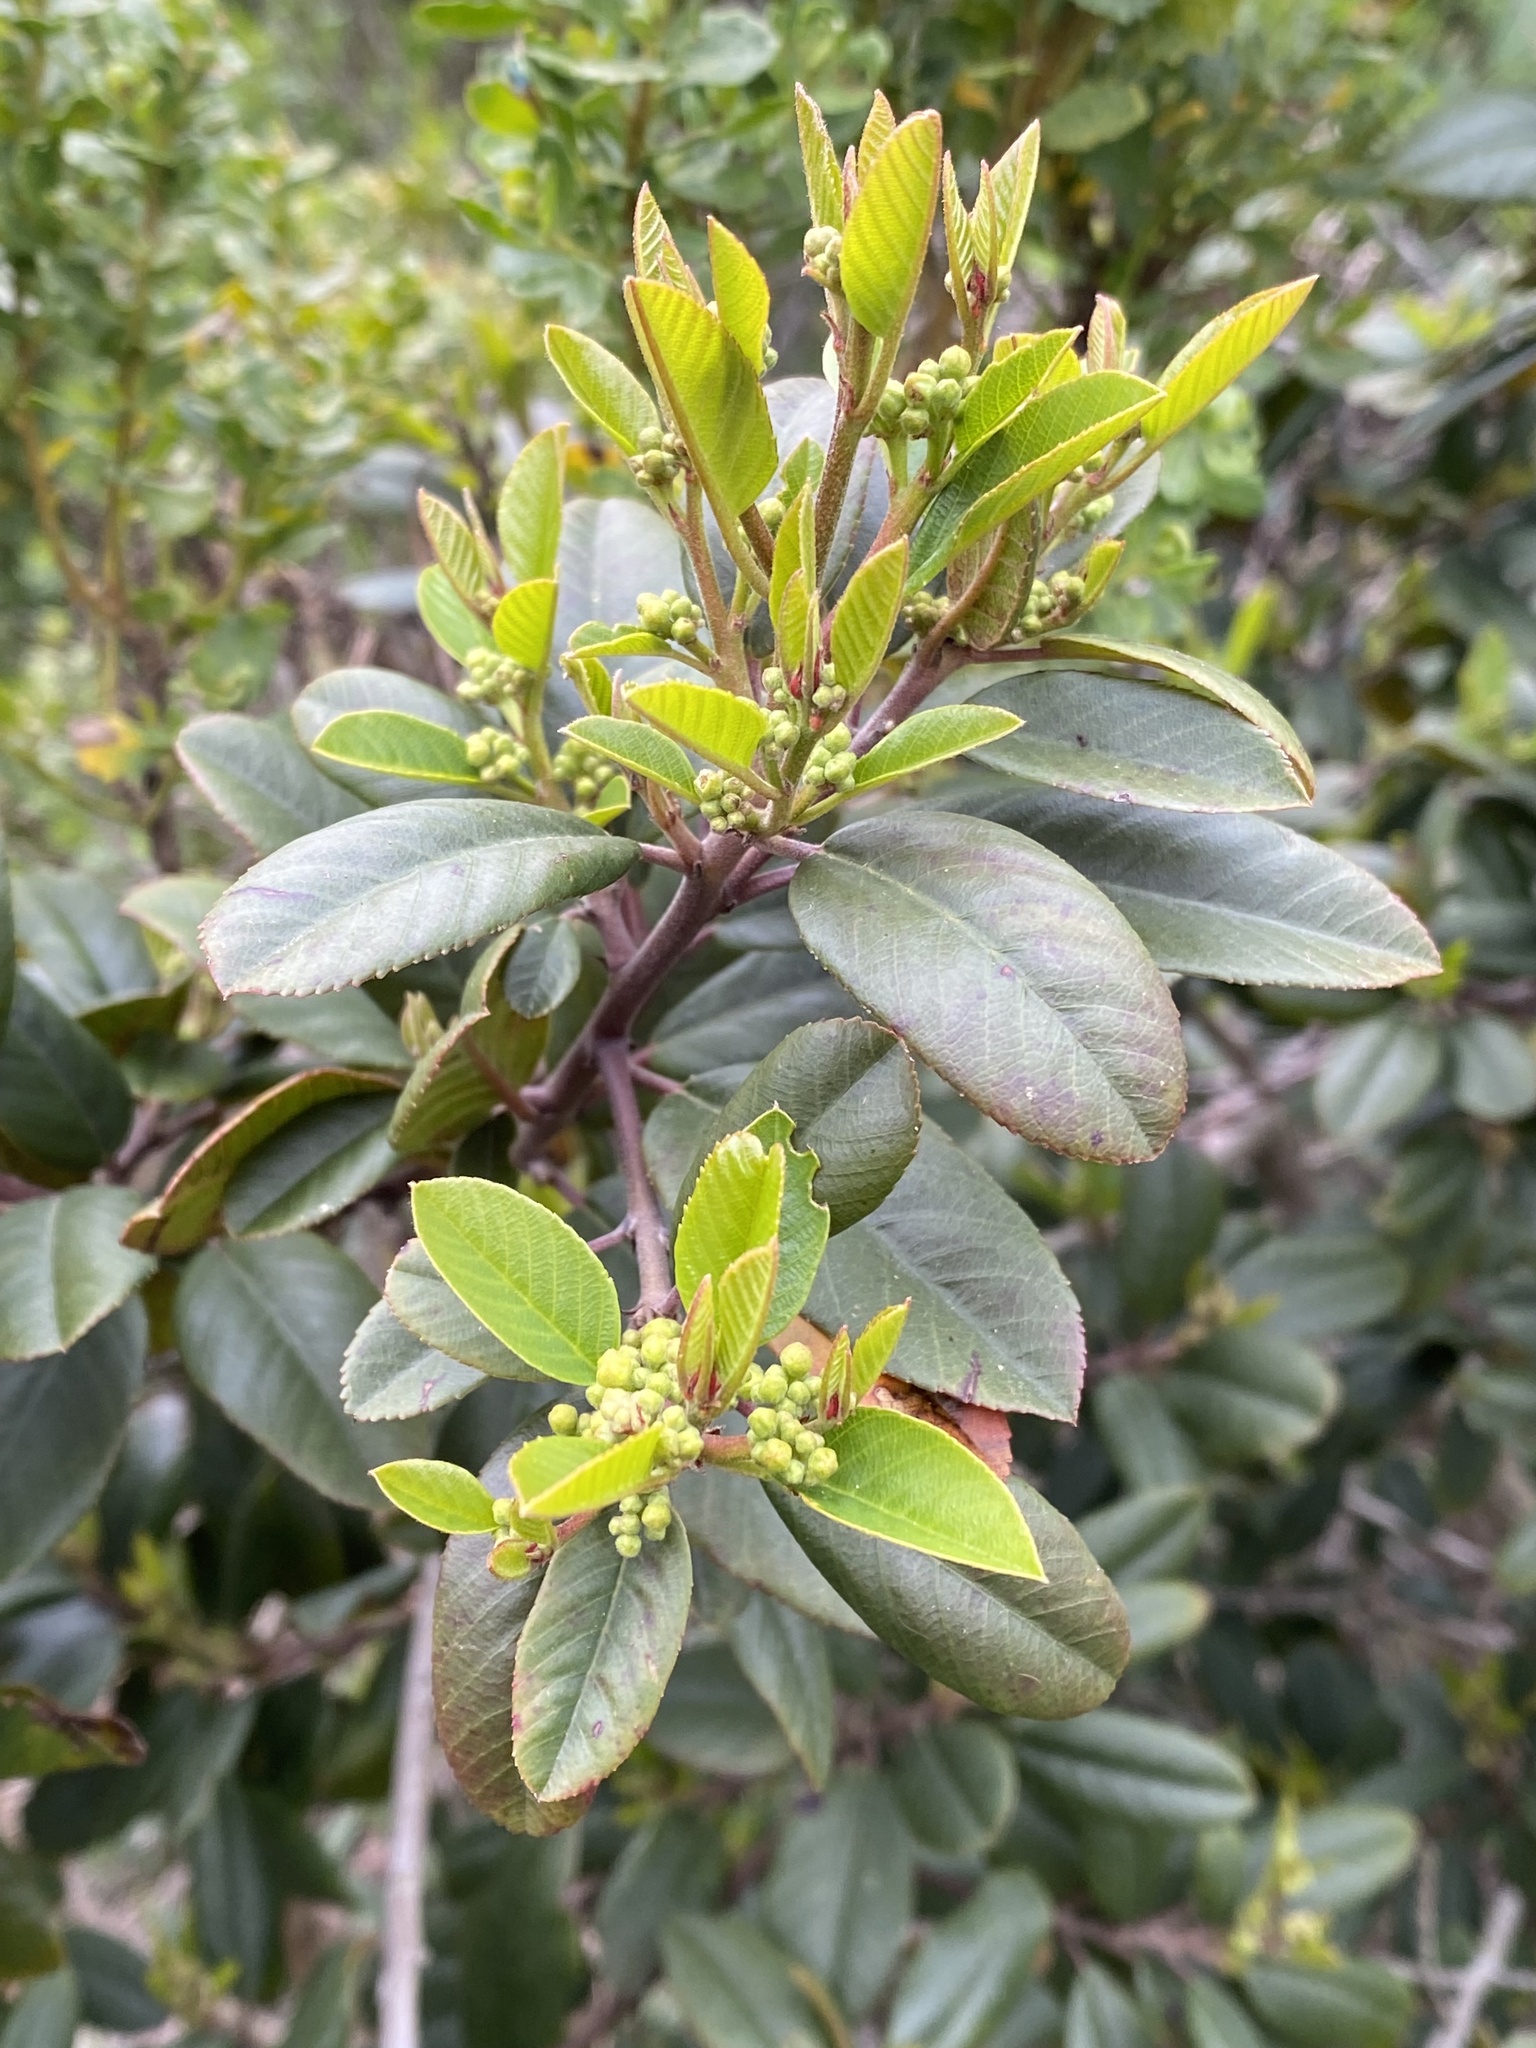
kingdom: Plantae
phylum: Tracheophyta
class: Magnoliopsida
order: Rosales
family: Rhamnaceae
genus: Frangula
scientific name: Frangula californica
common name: California buckthorn
